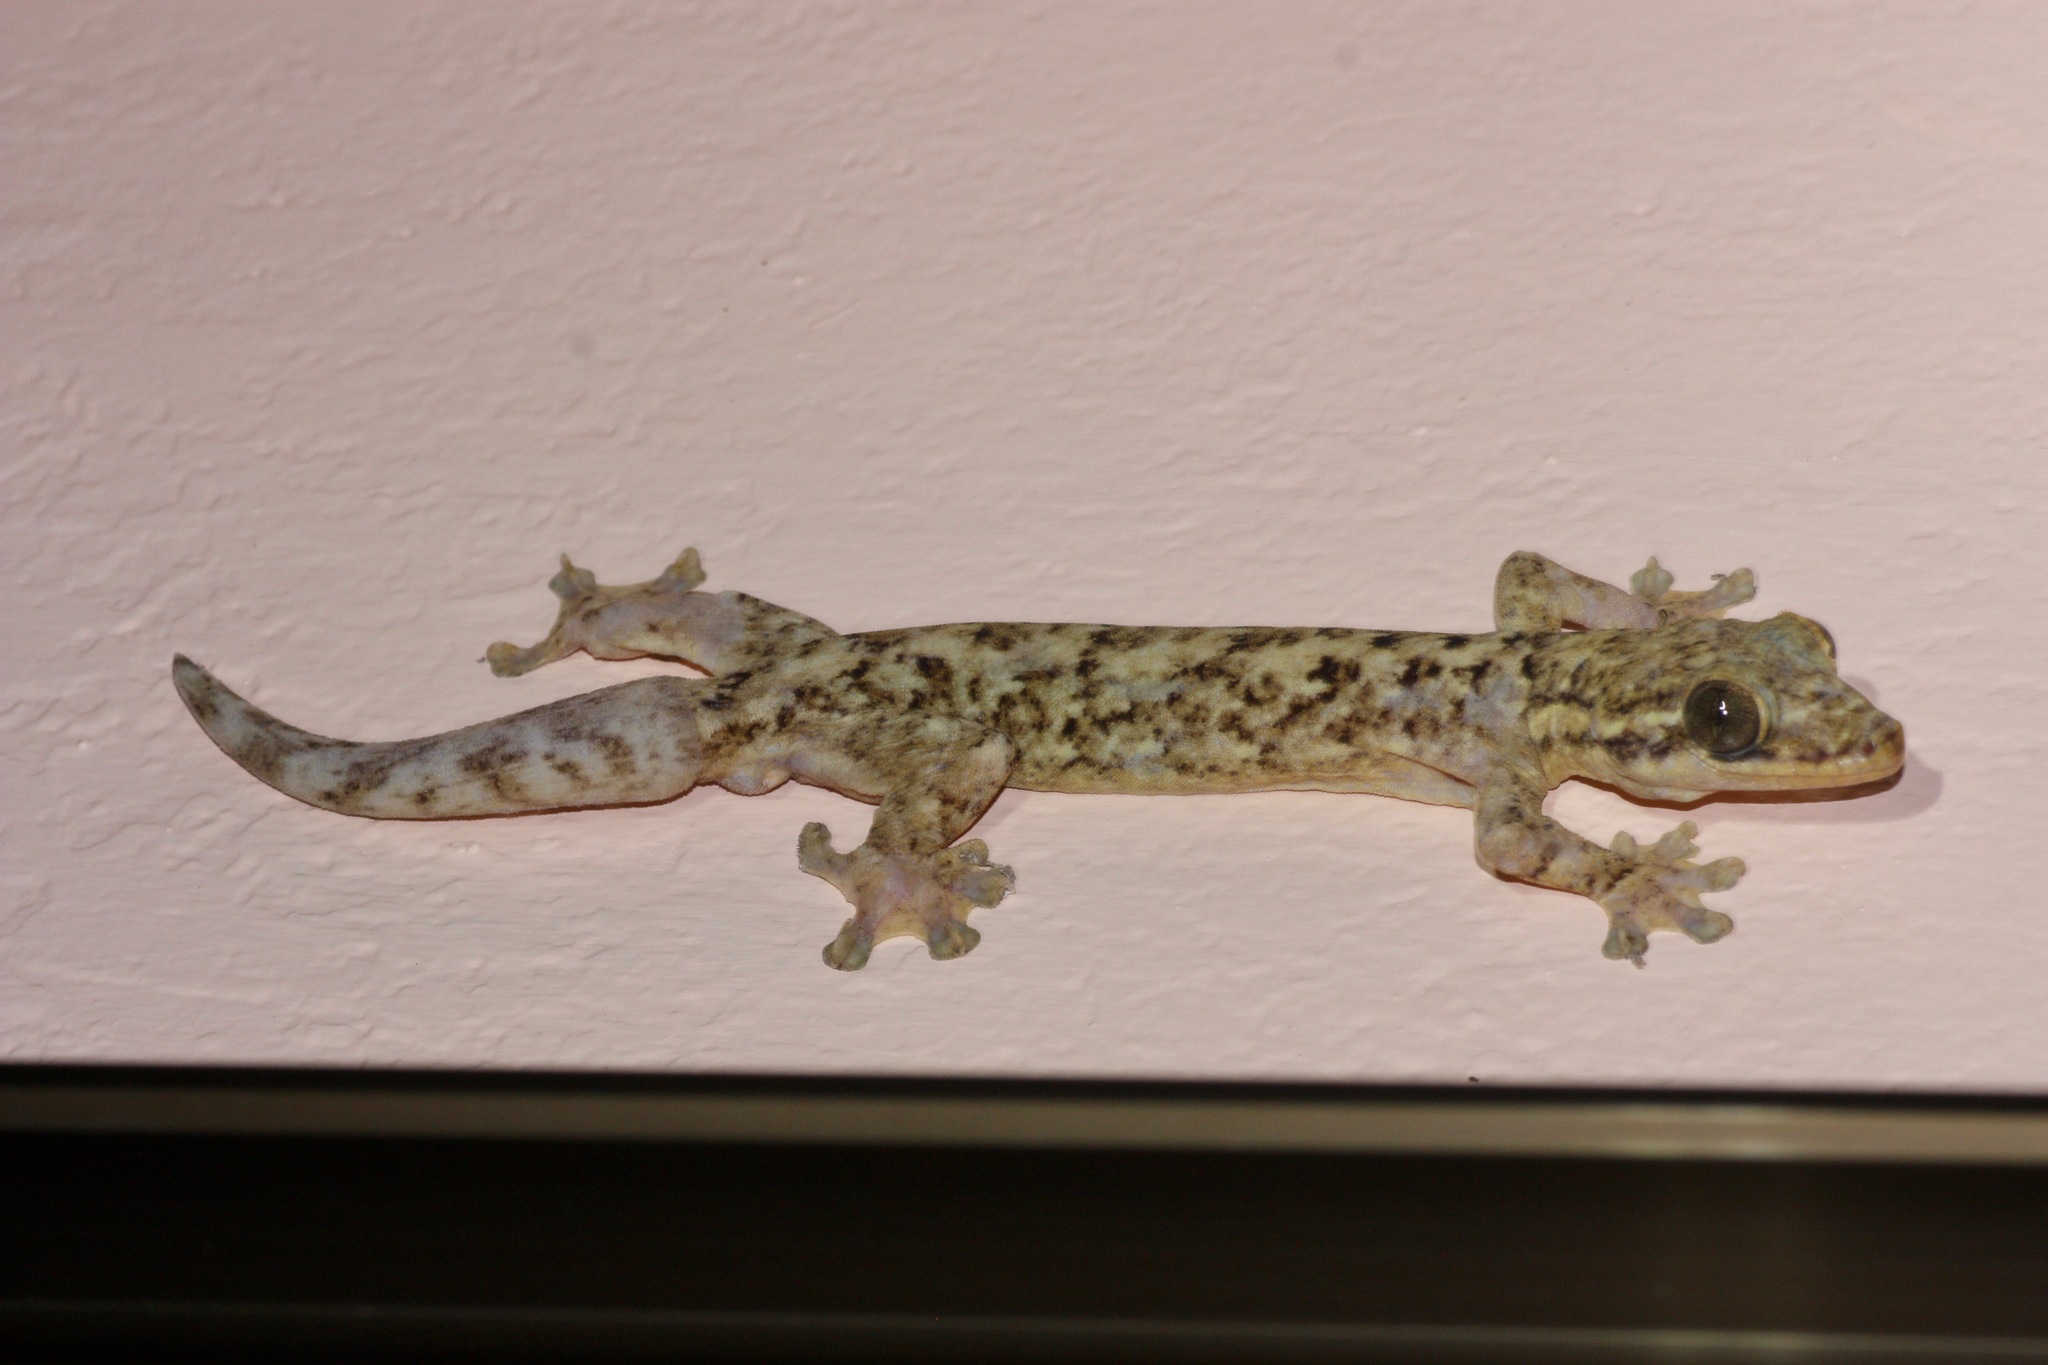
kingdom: Animalia
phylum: Chordata
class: Squamata
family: Phyllodactylidae
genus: Thecadactylus
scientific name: Thecadactylus rapicauda
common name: Turnip-tailed gecko
